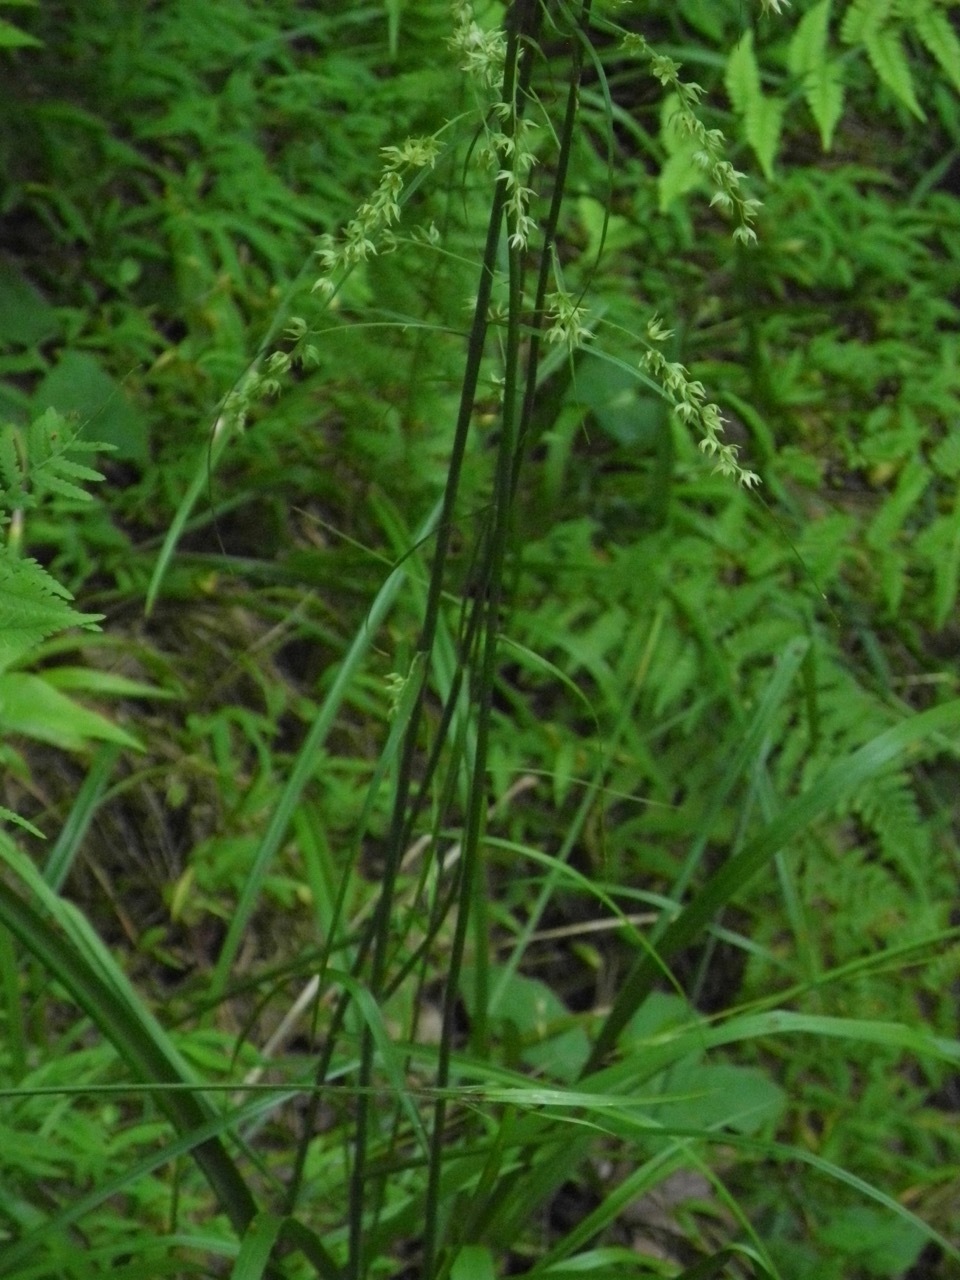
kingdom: Plantae
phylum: Tracheophyta
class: Liliopsida
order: Liliales
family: Melanthiaceae
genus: Stenanthium
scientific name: Stenanthium gramineum
